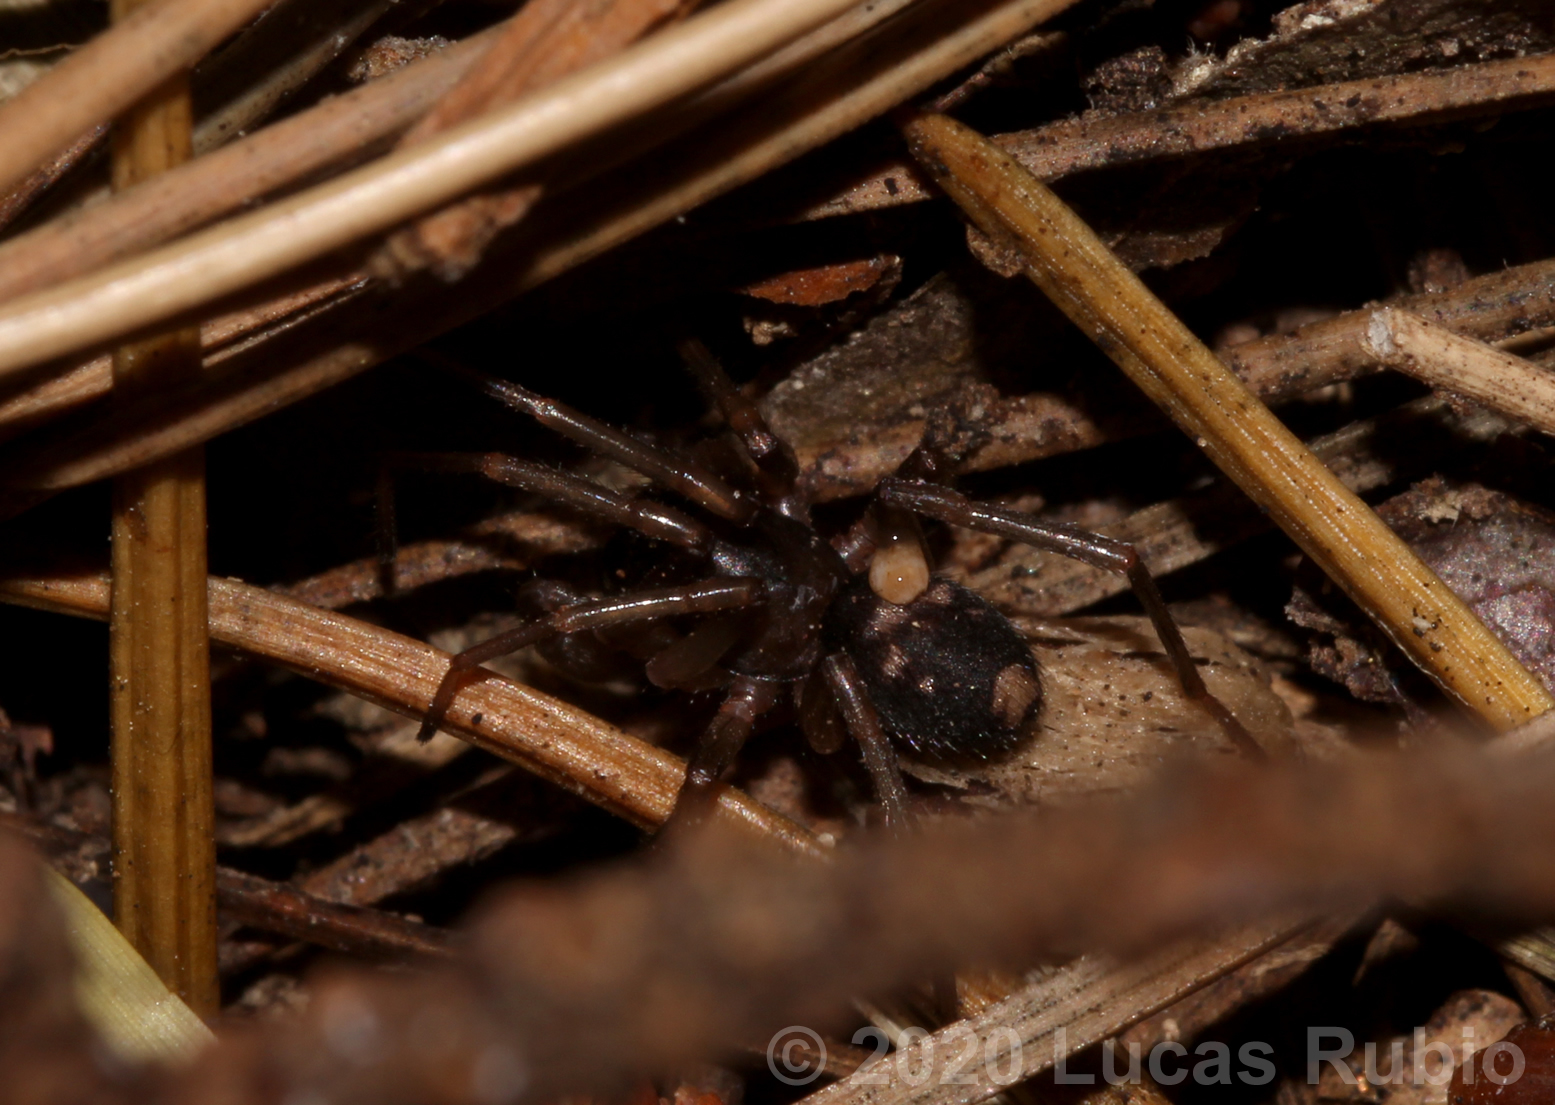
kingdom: Animalia
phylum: Arthropoda
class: Arachnida
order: Araneae
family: Corinnidae
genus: Falconina
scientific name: Falconina gracilis
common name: Antmimic spider
